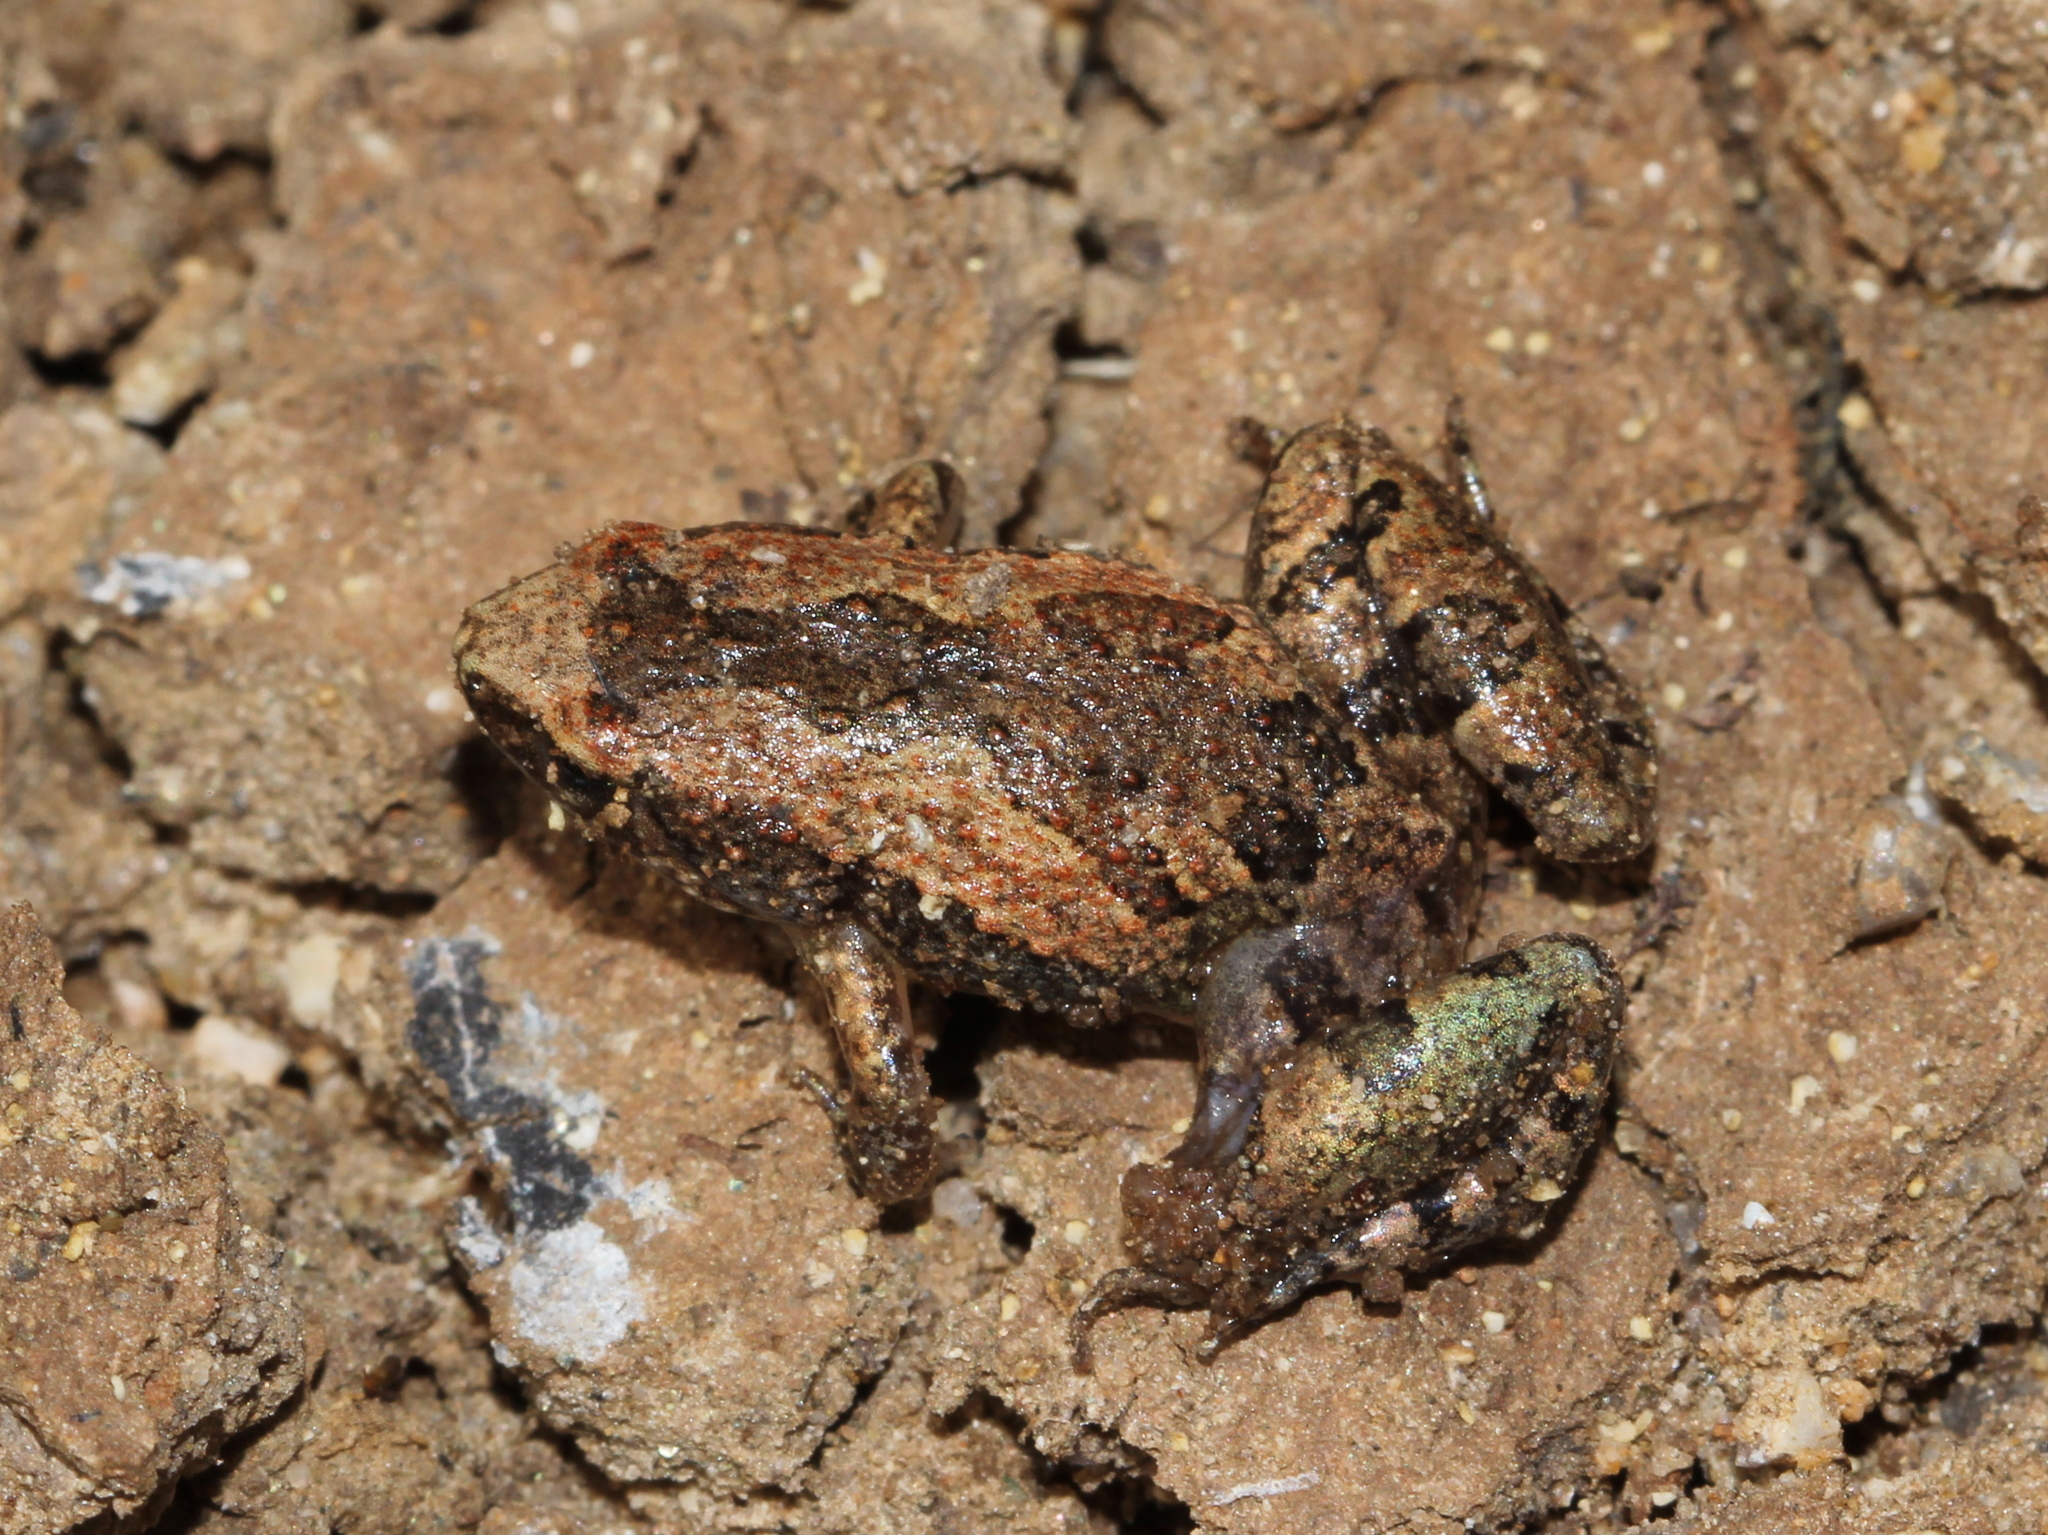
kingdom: Animalia
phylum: Chordata
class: Amphibia
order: Anura
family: Microhylidae
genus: Microhyla
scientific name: Microhyla ornata
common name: Ant frog
